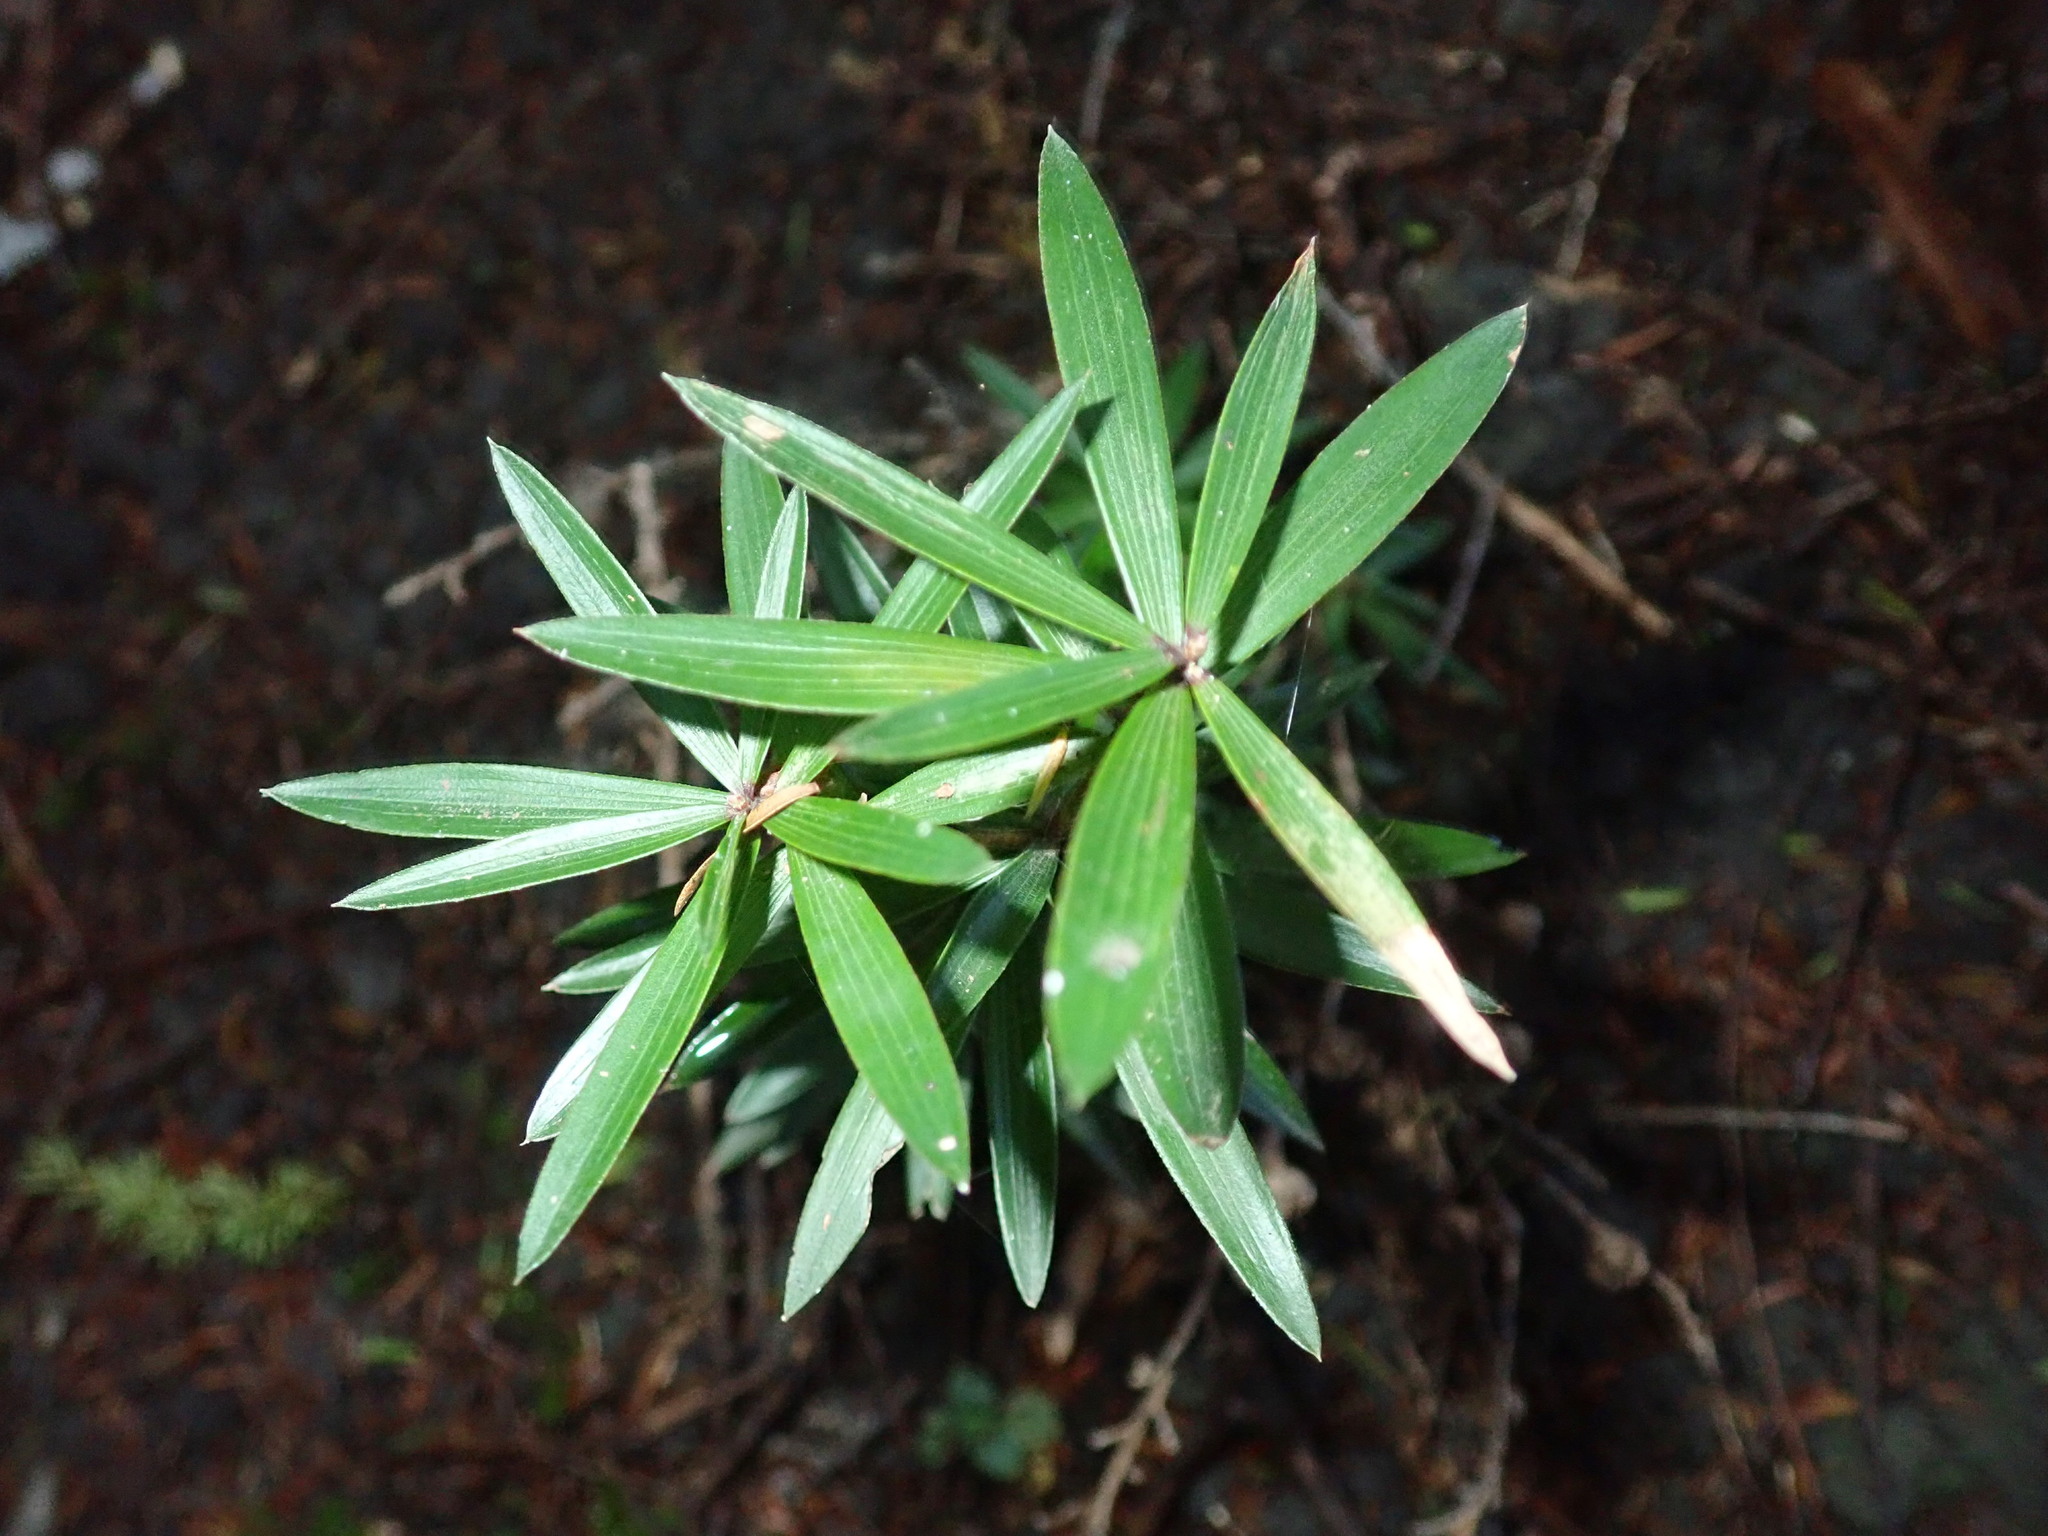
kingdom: Plantae
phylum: Tracheophyta
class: Magnoliopsida
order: Ericales
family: Ericaceae
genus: Leucopogon
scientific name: Leucopogon fasciculatus
